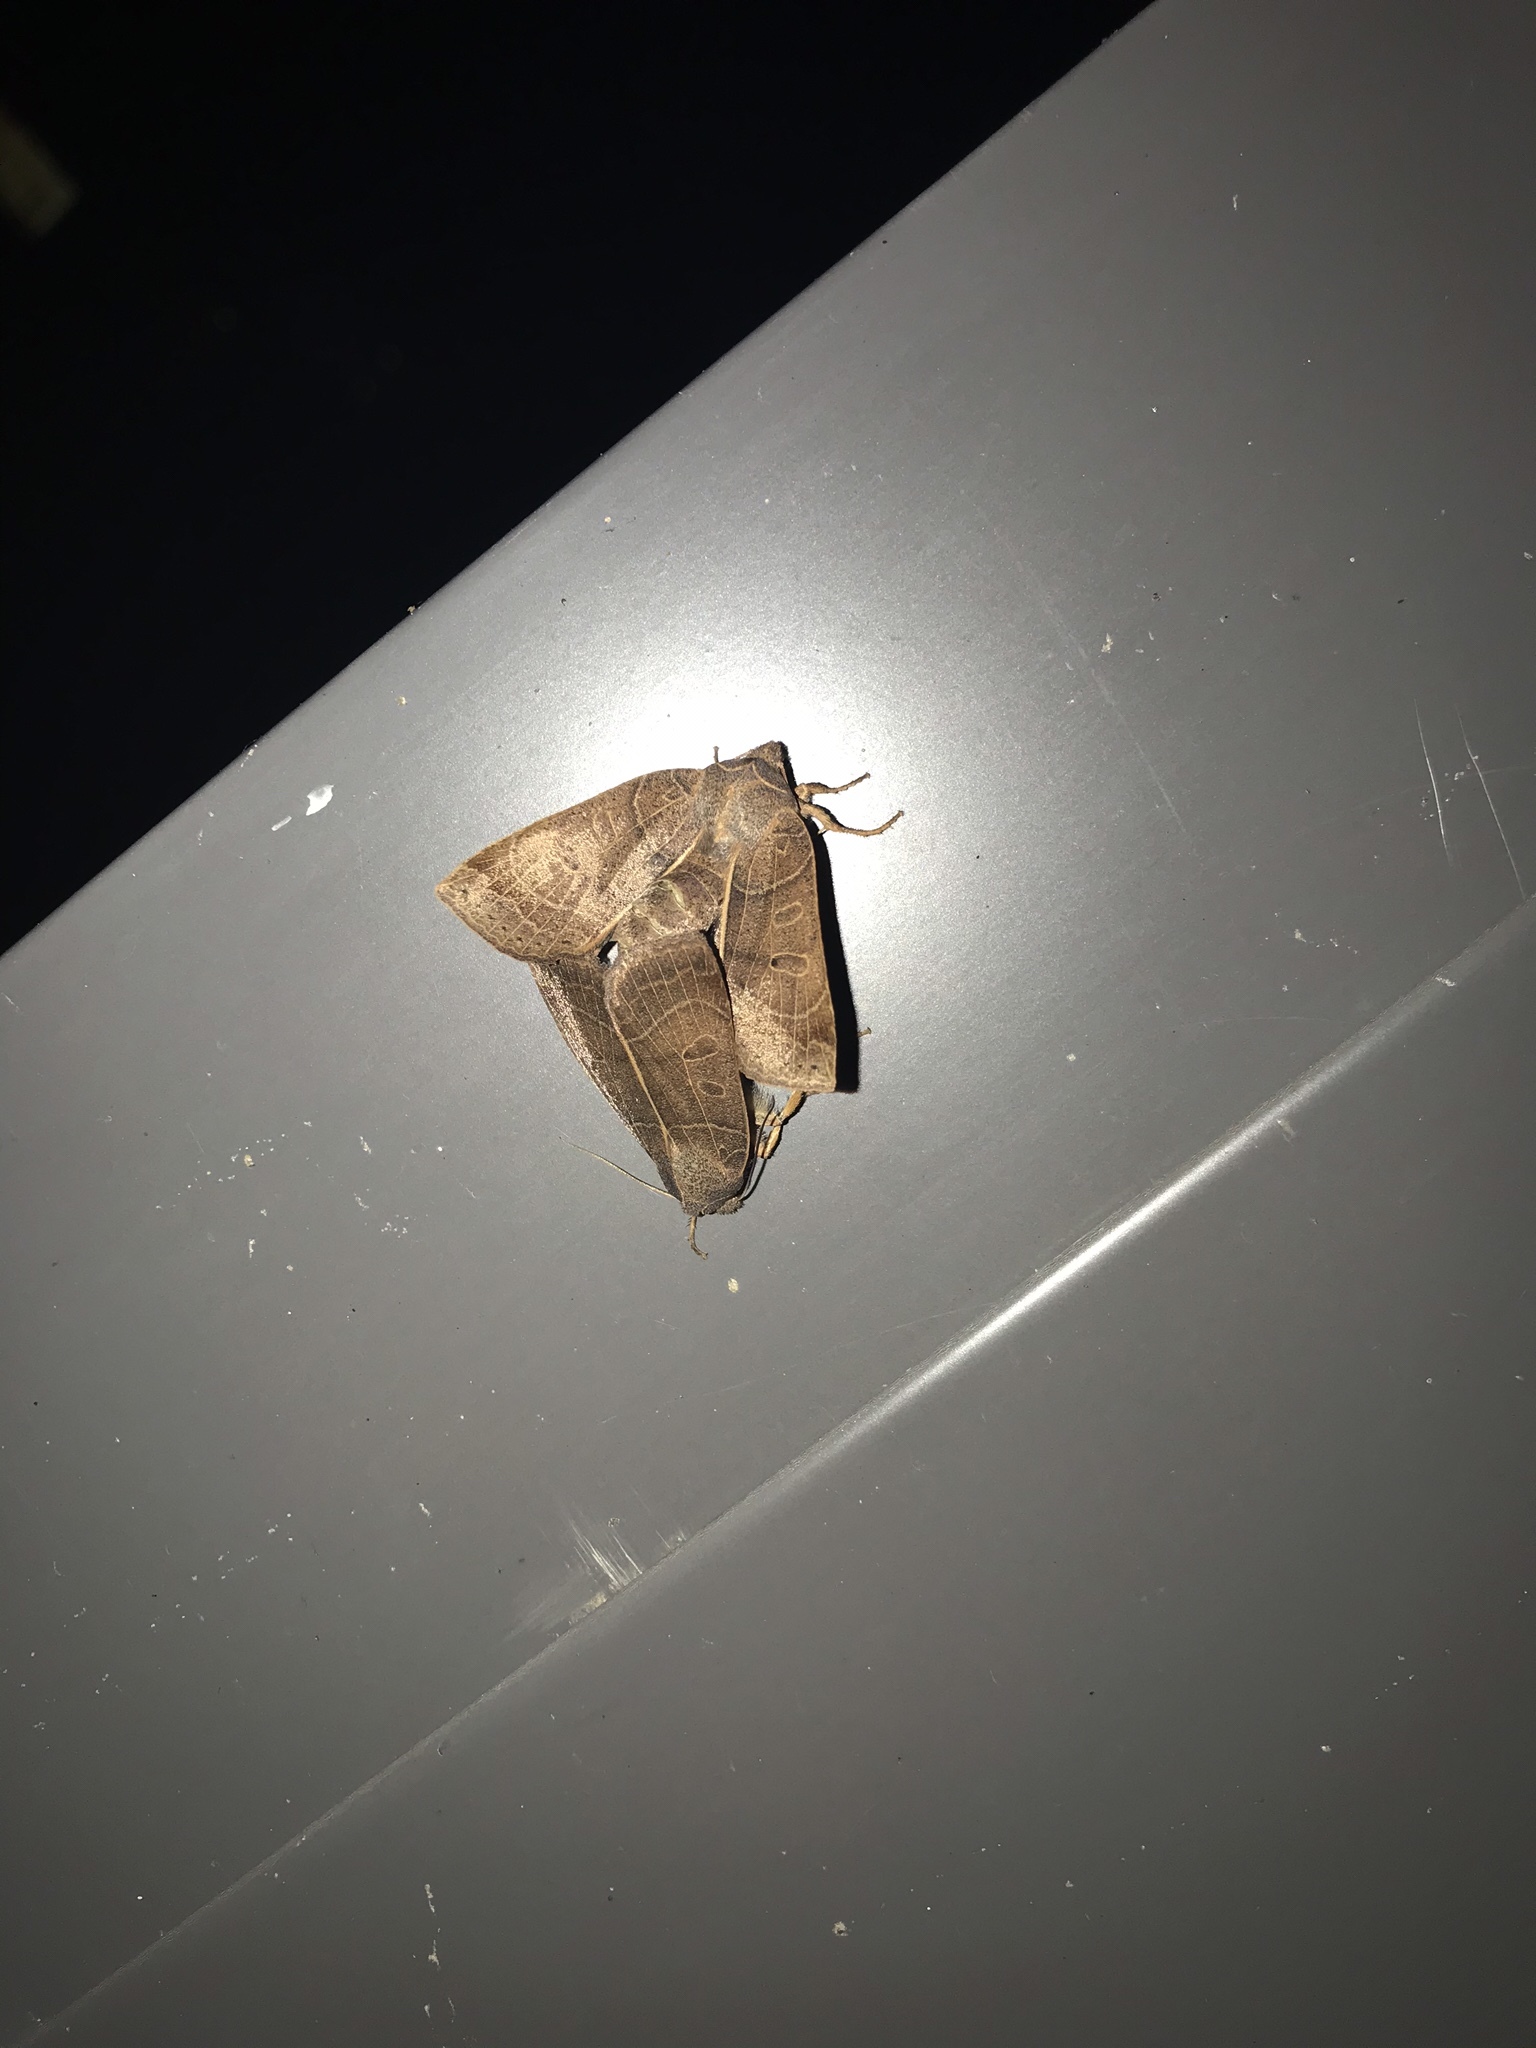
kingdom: Animalia
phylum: Arthropoda
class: Insecta
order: Lepidoptera
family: Noctuidae
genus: Chaetaglaea
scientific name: Chaetaglaea sericea
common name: Silky sallow
